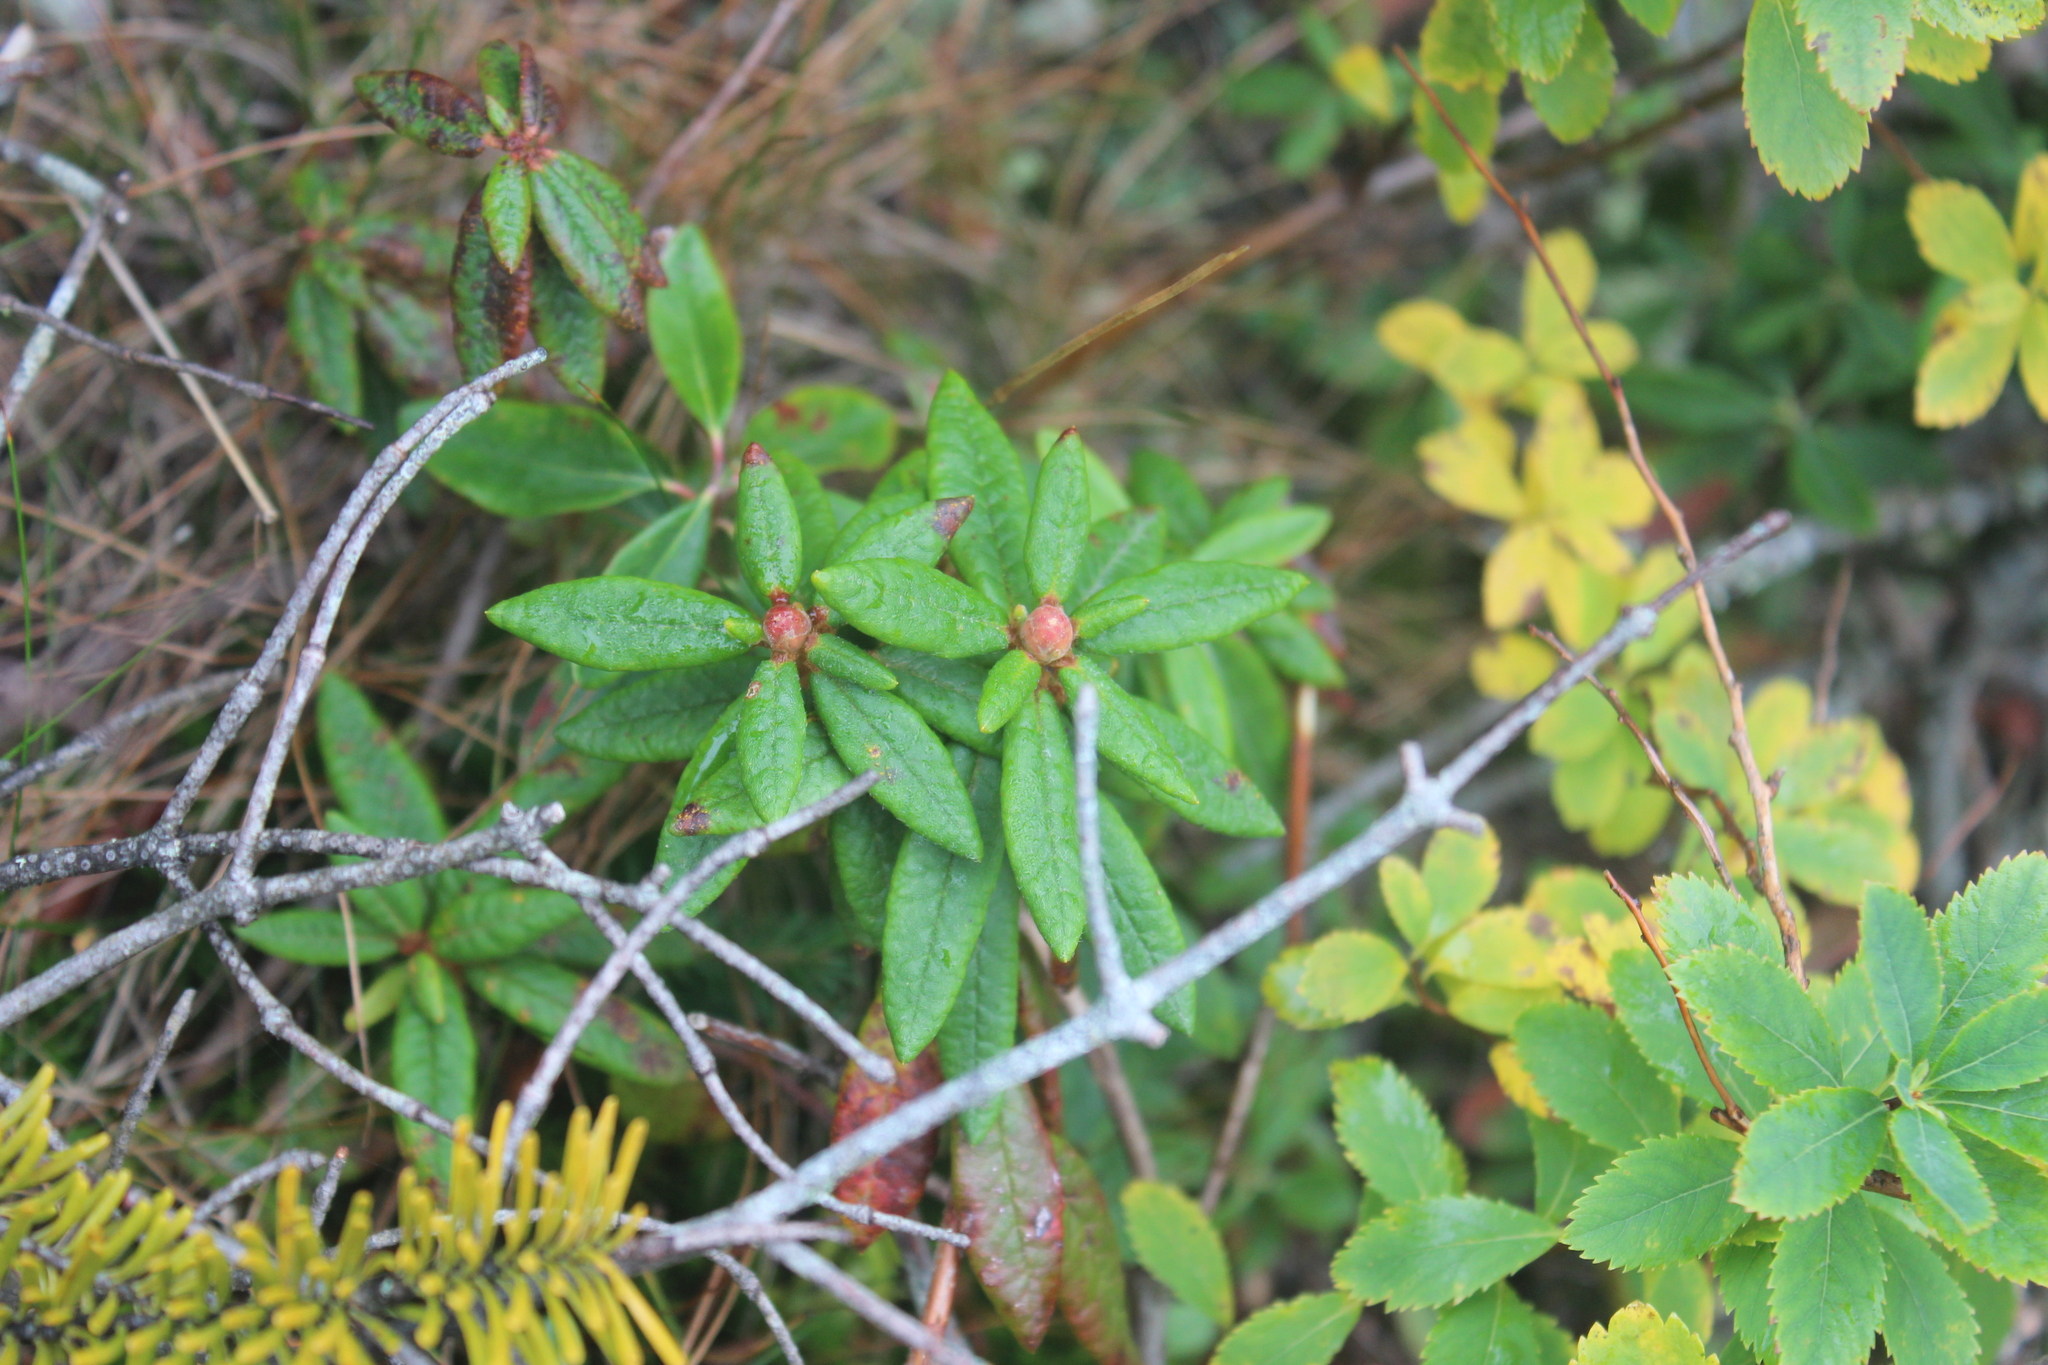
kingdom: Plantae
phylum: Tracheophyta
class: Magnoliopsida
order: Ericales
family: Ericaceae
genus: Rhododendron
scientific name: Rhododendron groenlandicum
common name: Bog labrador tea
